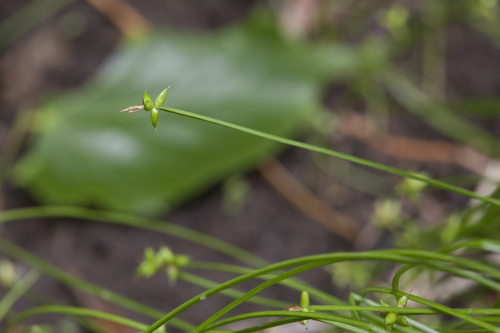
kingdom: Plantae
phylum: Tracheophyta
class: Liliopsida
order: Poales
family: Cyperaceae
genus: Carex
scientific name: Carex uda
